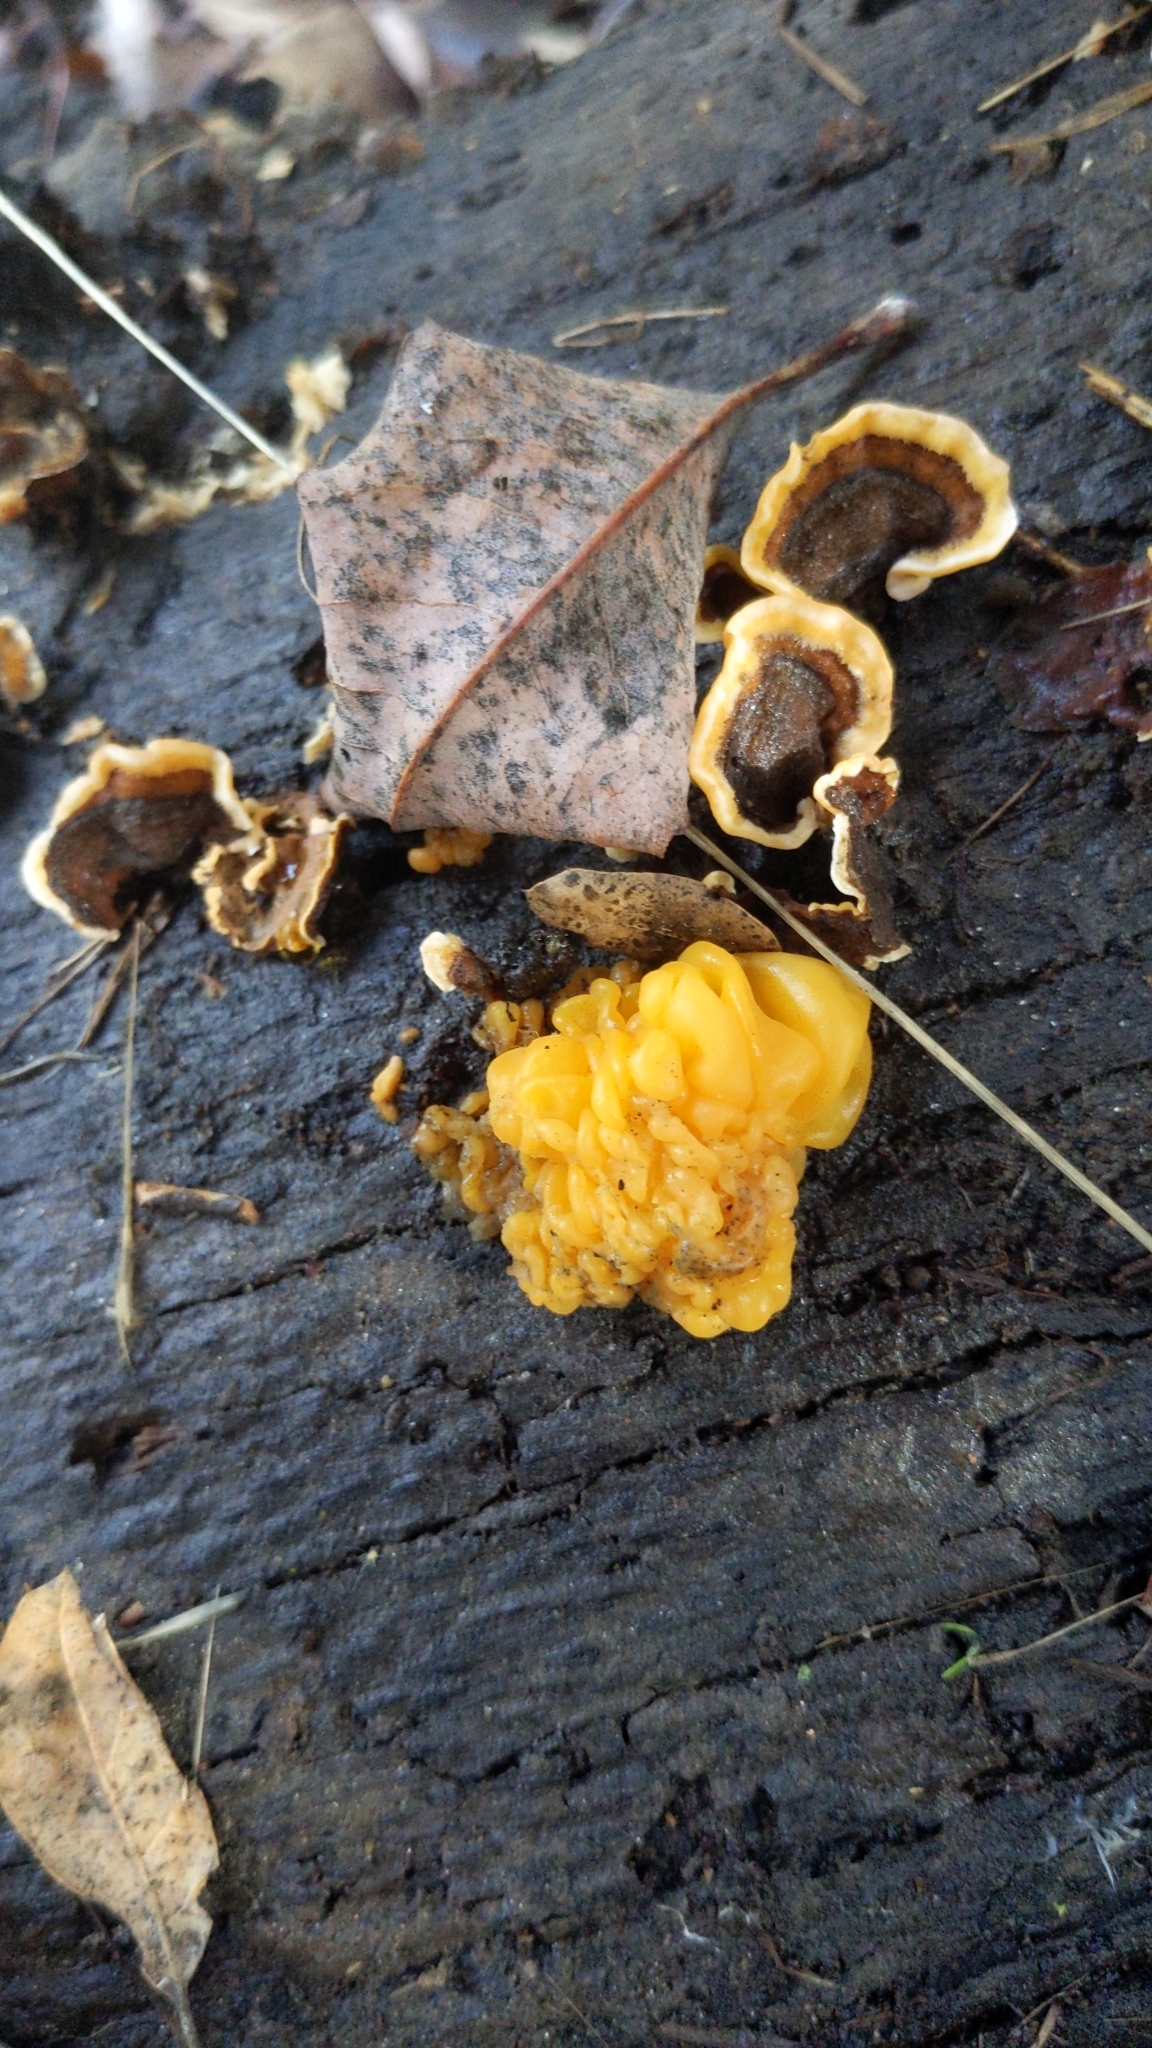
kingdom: Fungi
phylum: Basidiomycota
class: Tremellomycetes
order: Tremellales
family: Naemateliaceae
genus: Naematelia
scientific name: Naematelia aurantia
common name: Golden ear
